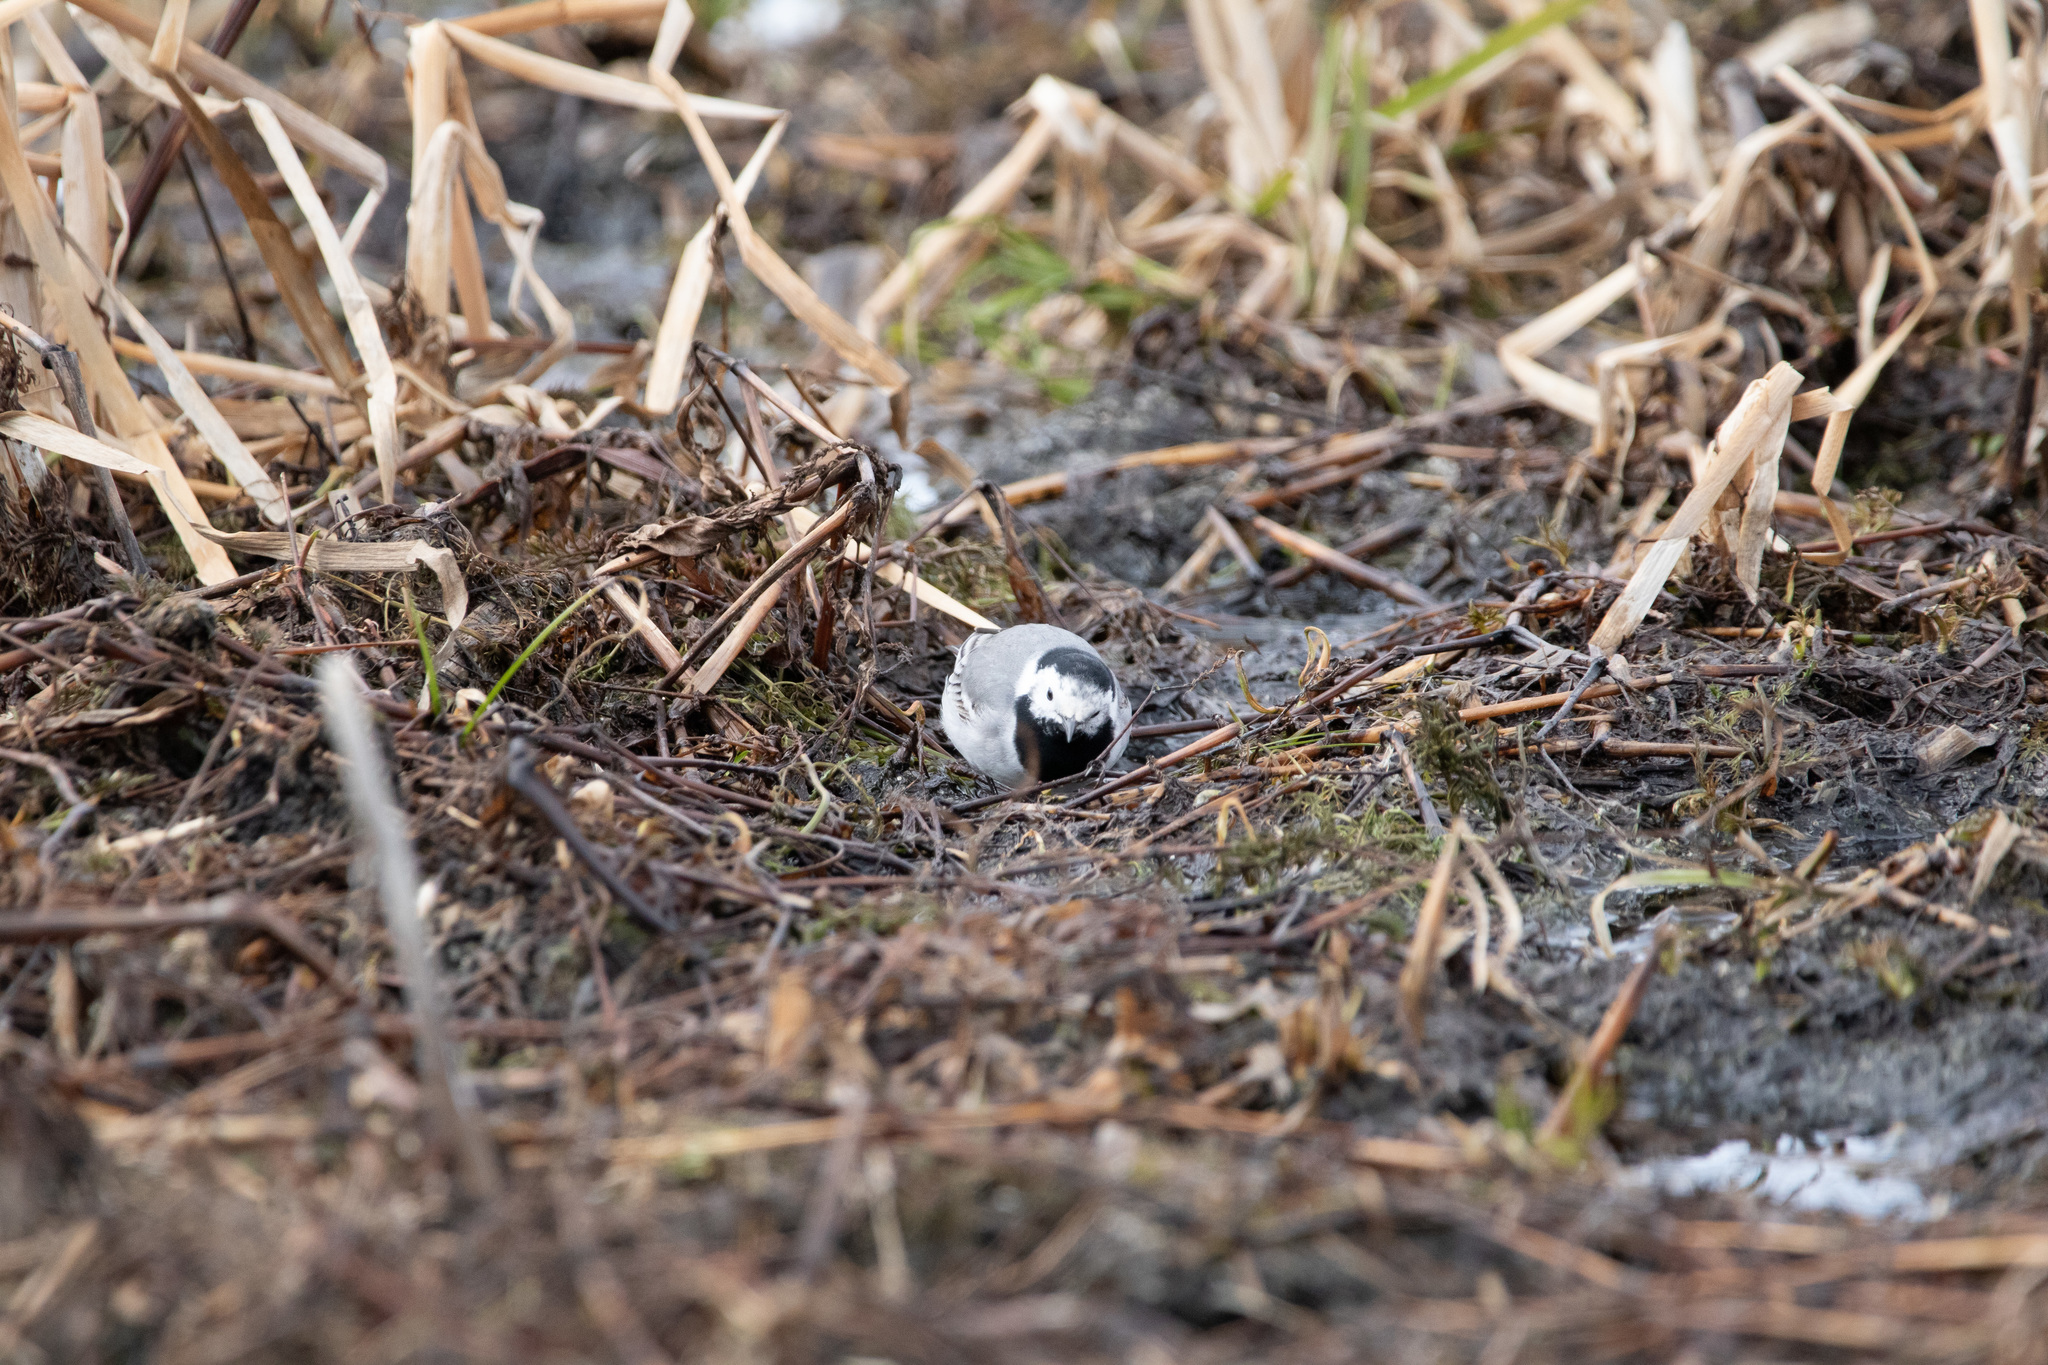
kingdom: Animalia
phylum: Chordata
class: Aves
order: Passeriformes
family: Motacillidae
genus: Motacilla
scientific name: Motacilla alba
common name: White wagtail
